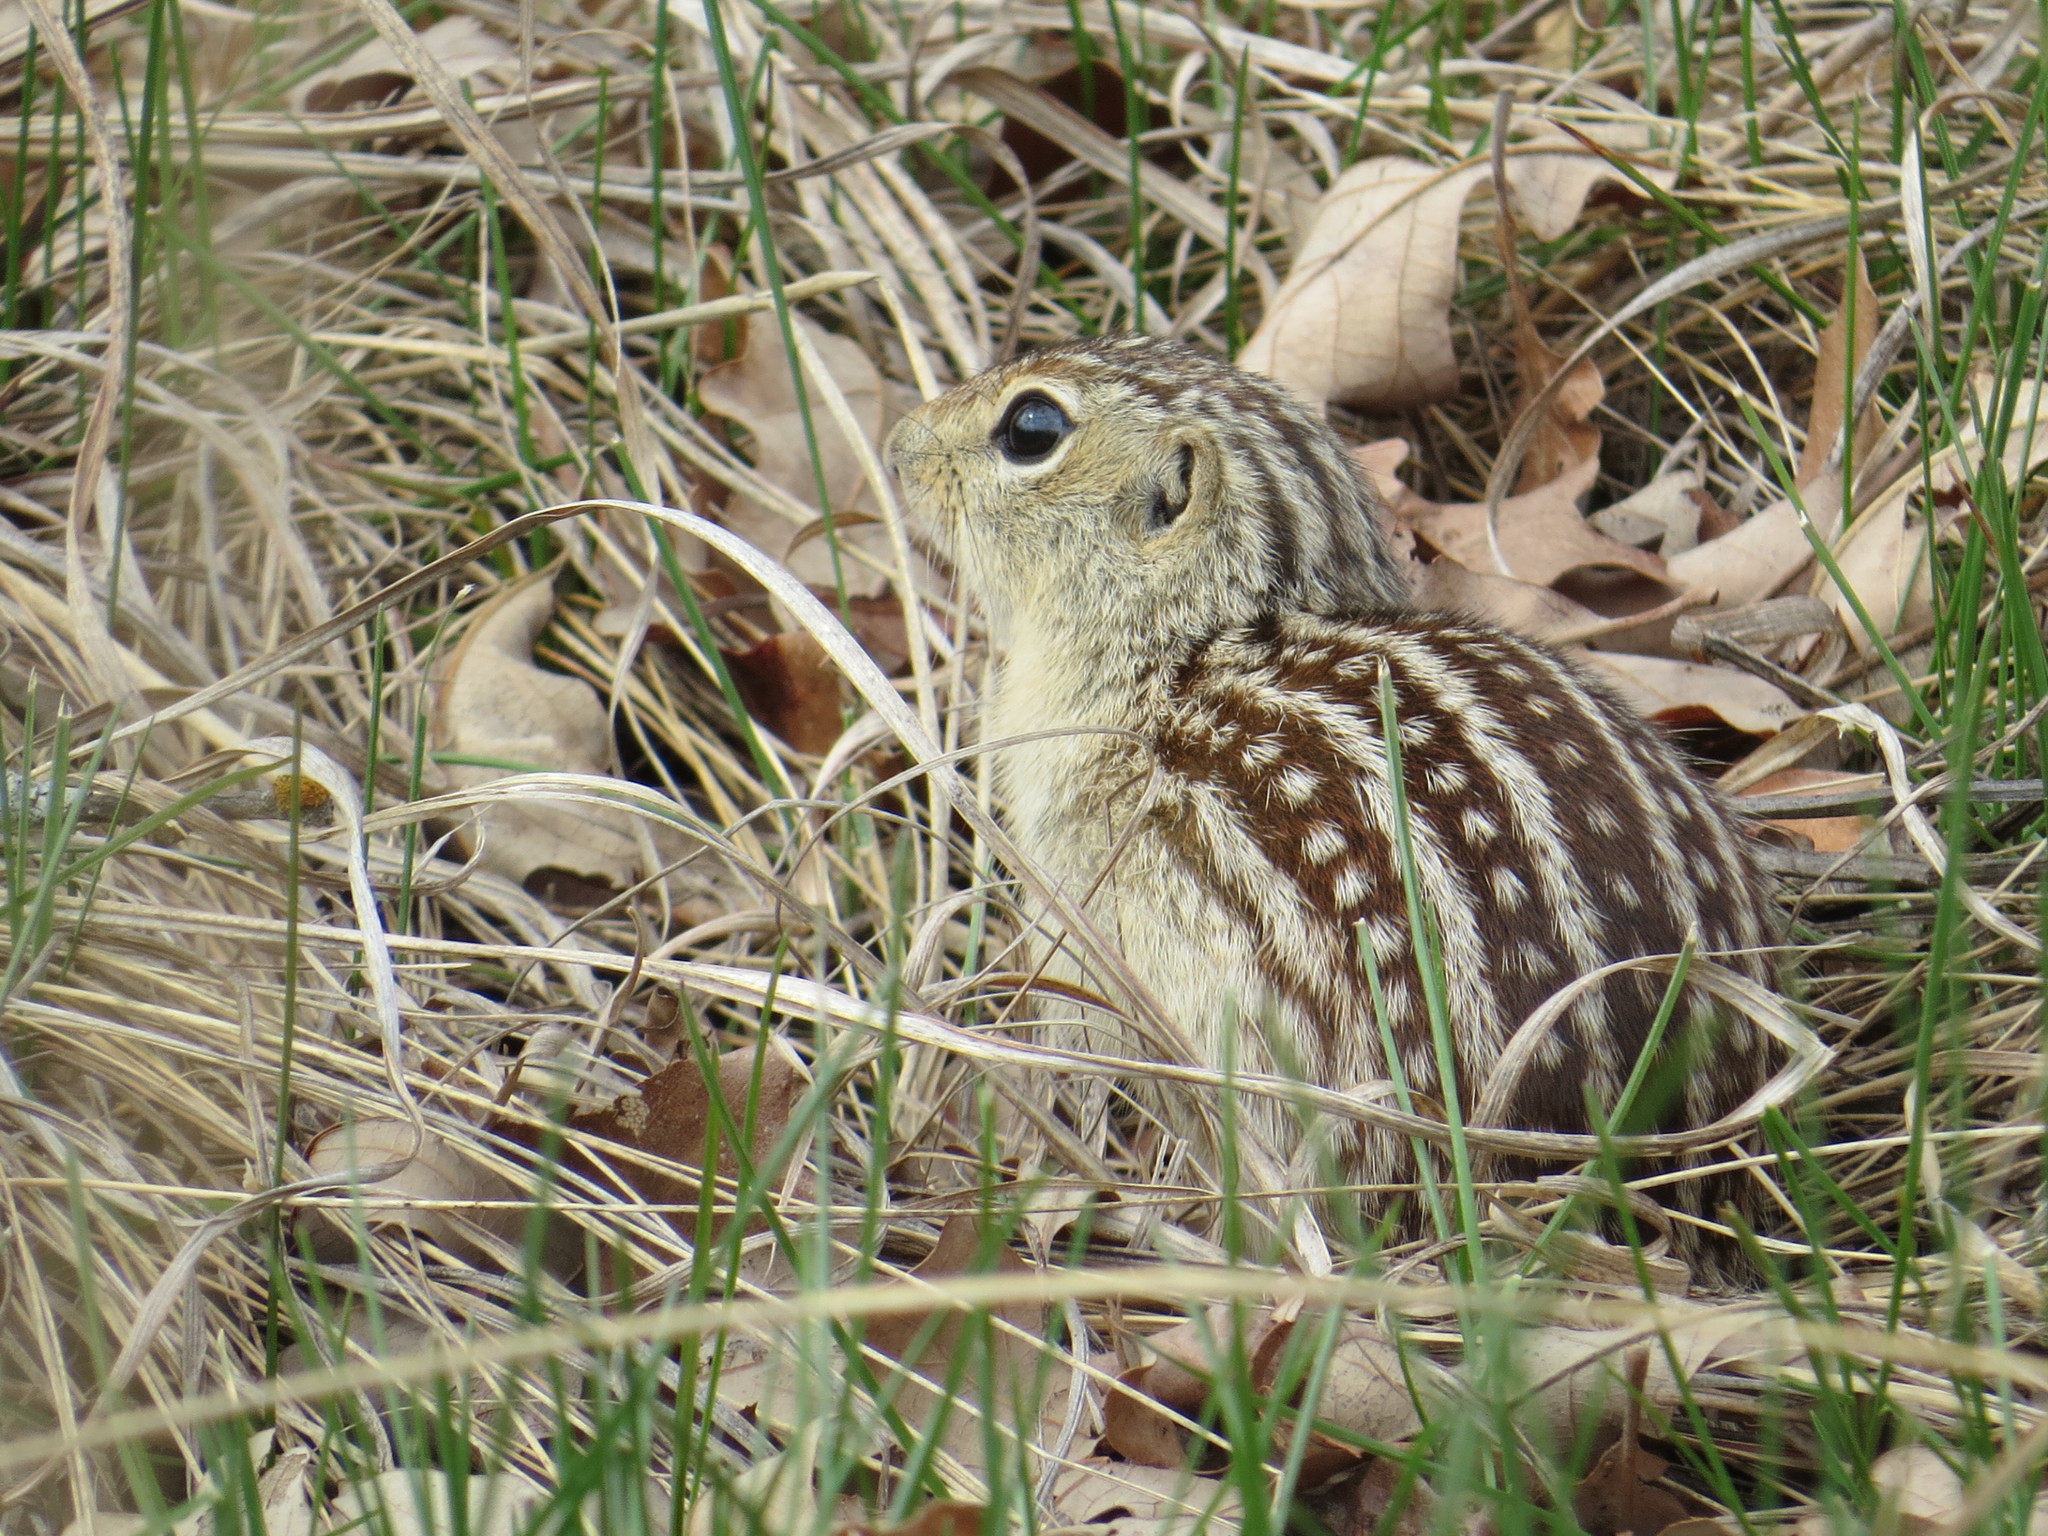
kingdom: Animalia
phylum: Chordata
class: Mammalia
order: Rodentia
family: Sciuridae
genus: Ictidomys
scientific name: Ictidomys tridecemlineatus
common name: Thirteen-lined ground squirrel
